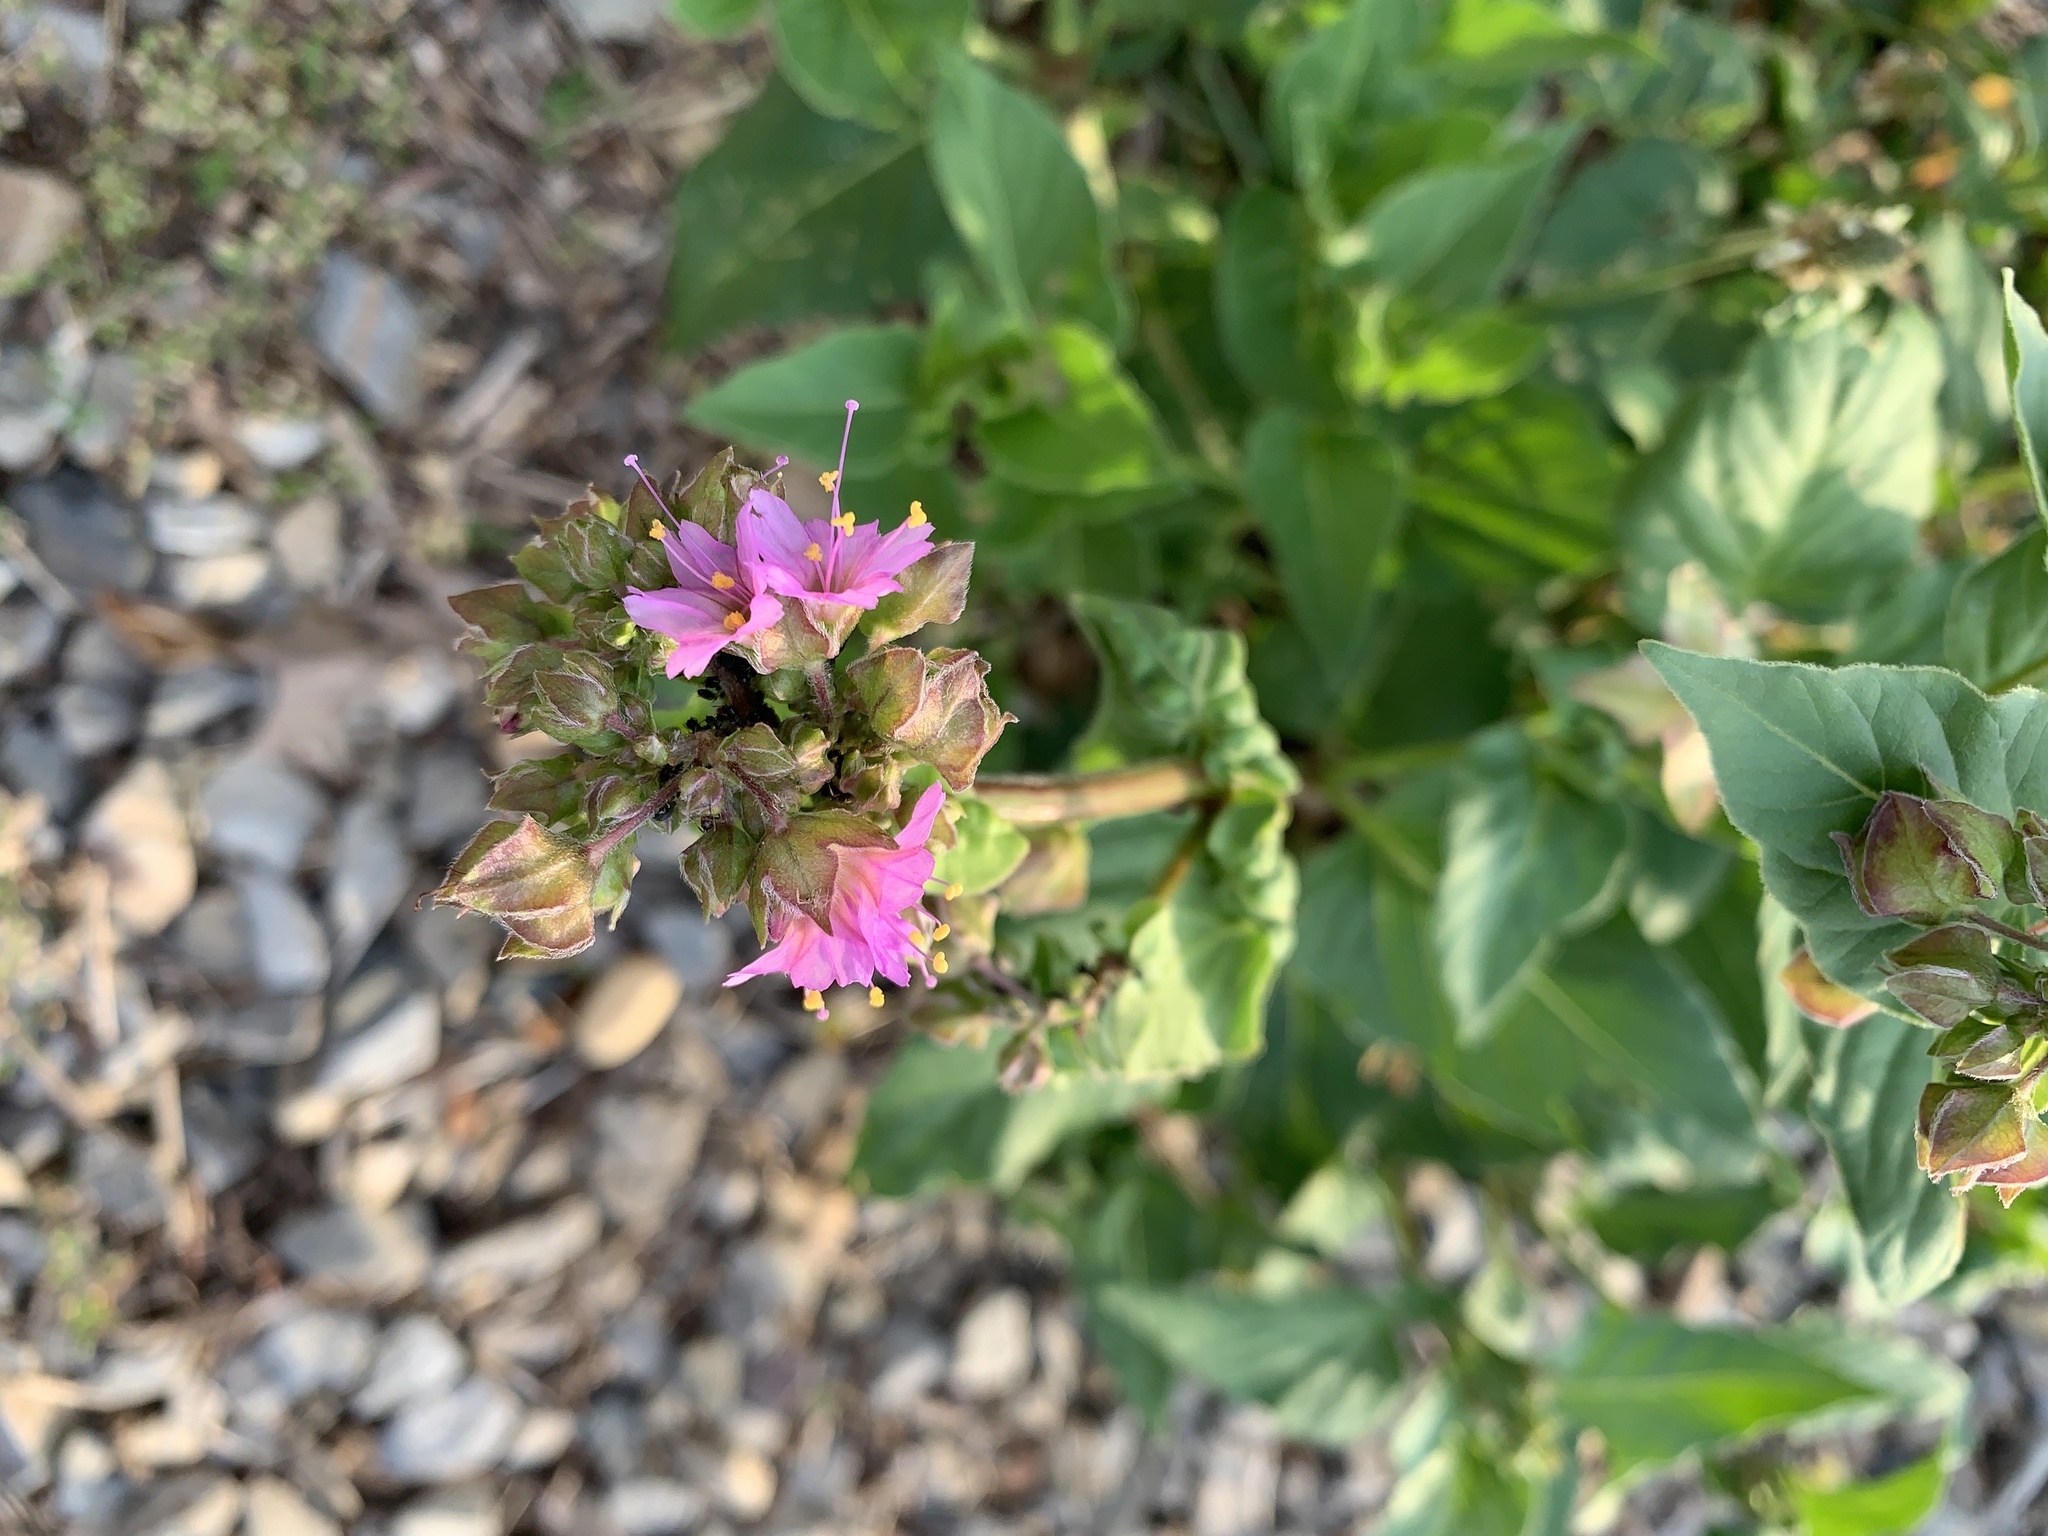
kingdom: Plantae
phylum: Tracheophyta
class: Magnoliopsida
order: Caryophyllales
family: Nyctaginaceae
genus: Mirabilis
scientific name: Mirabilis nyctaginea
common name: Umbrella wort
